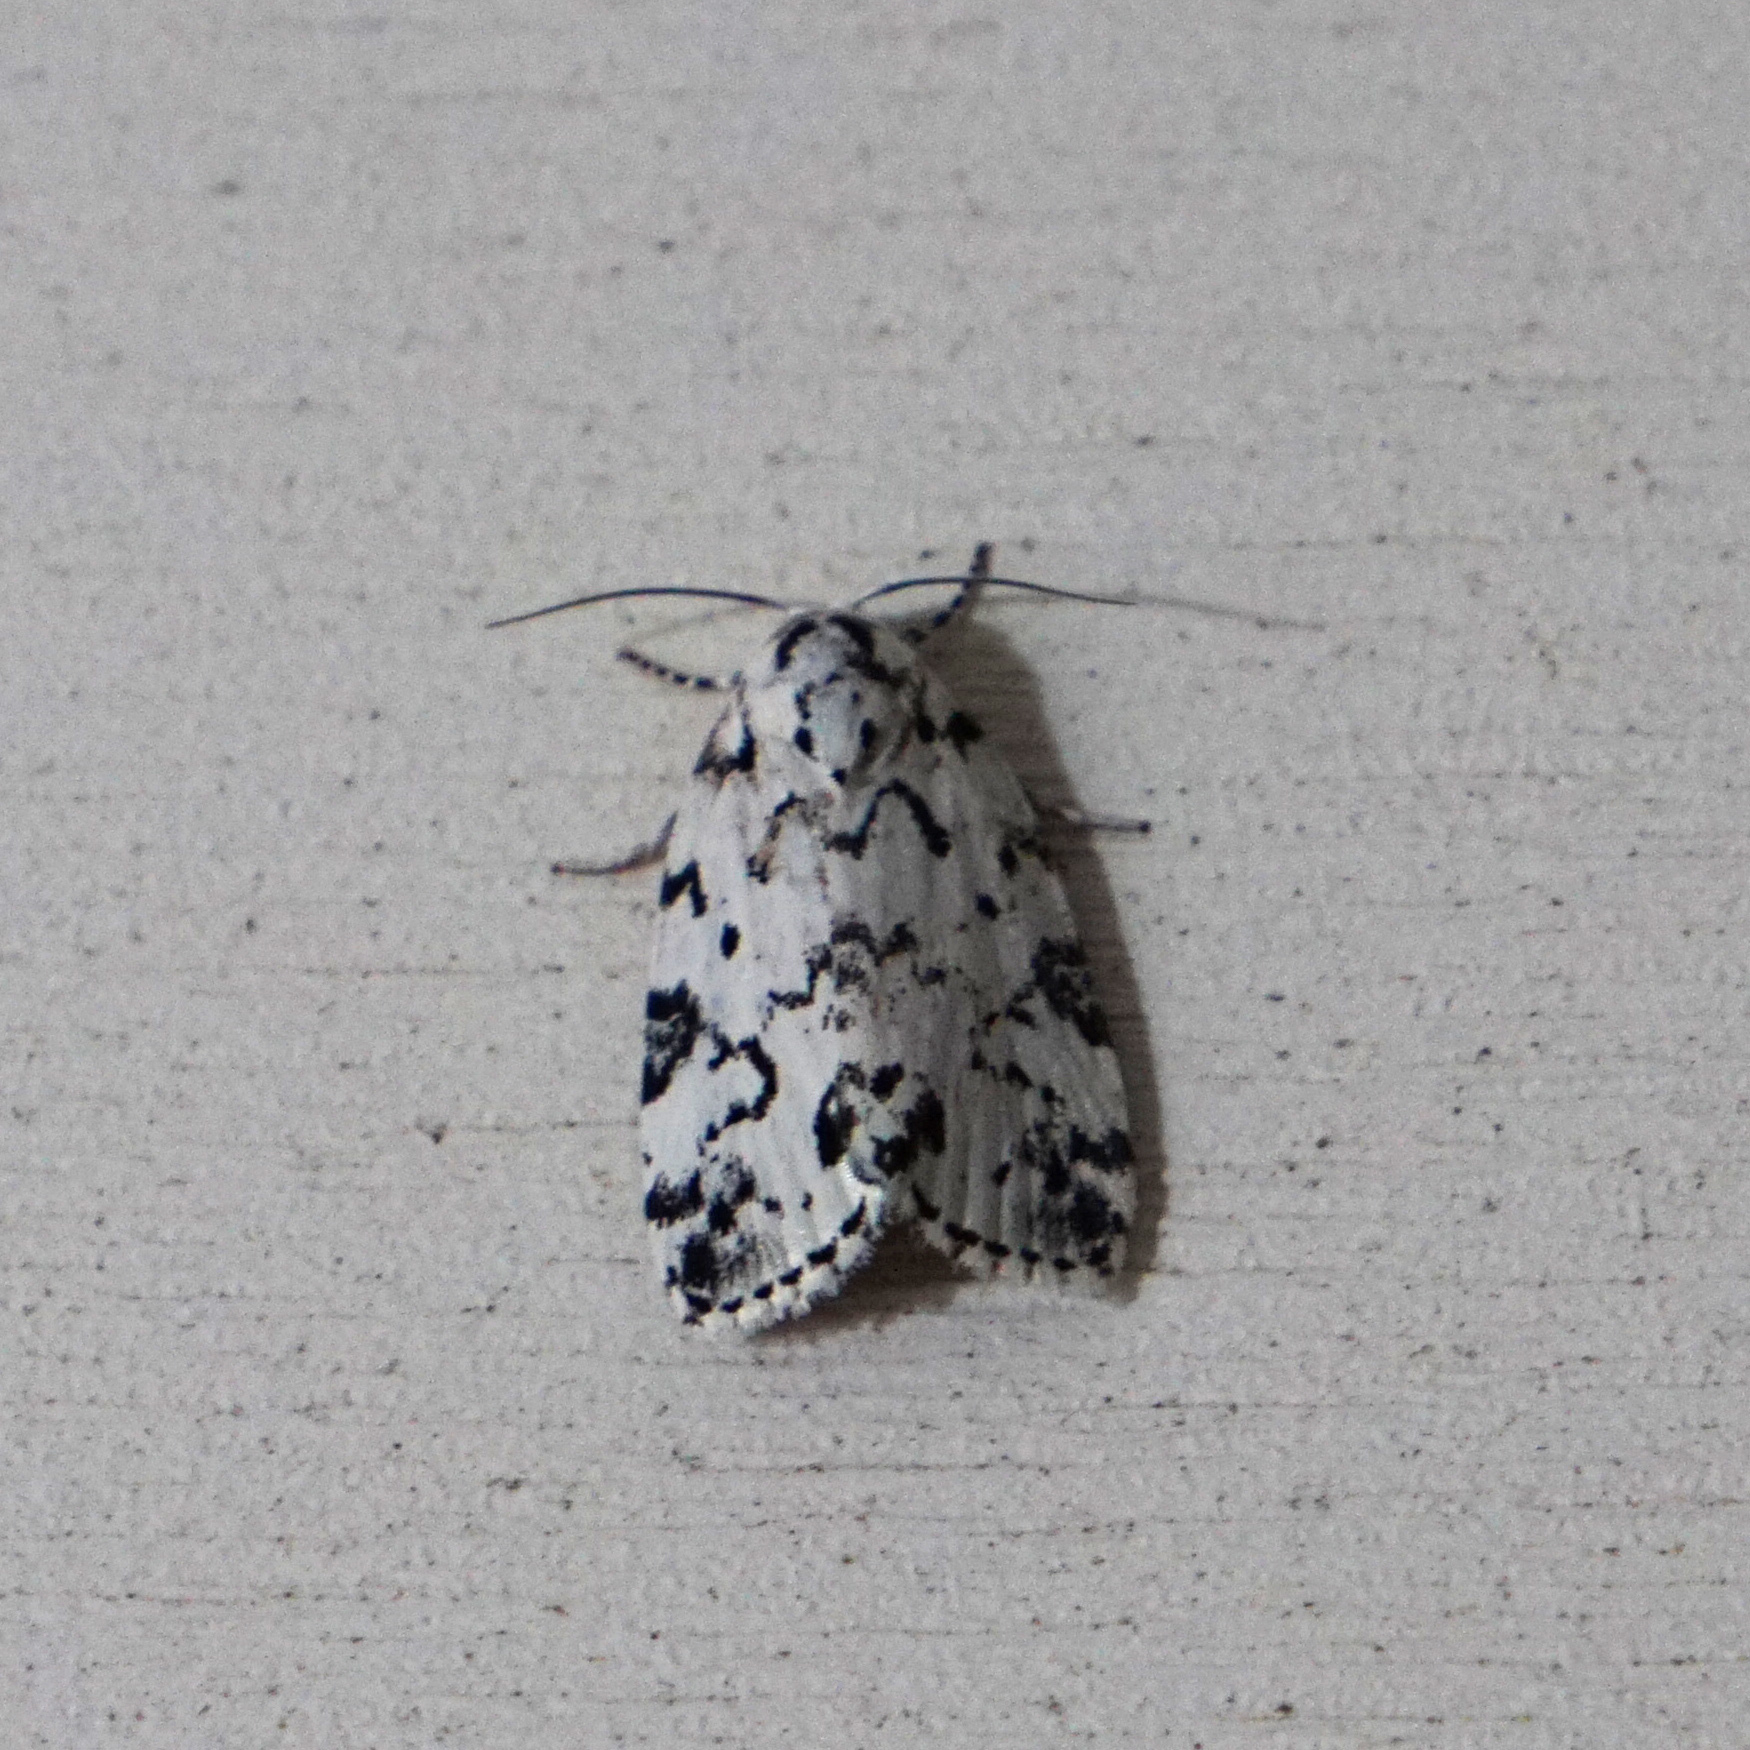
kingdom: Animalia
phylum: Arthropoda
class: Insecta
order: Lepidoptera
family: Noctuidae
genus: Polygrammate
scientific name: Polygrammate hebraeicum
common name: Hebrew moth
